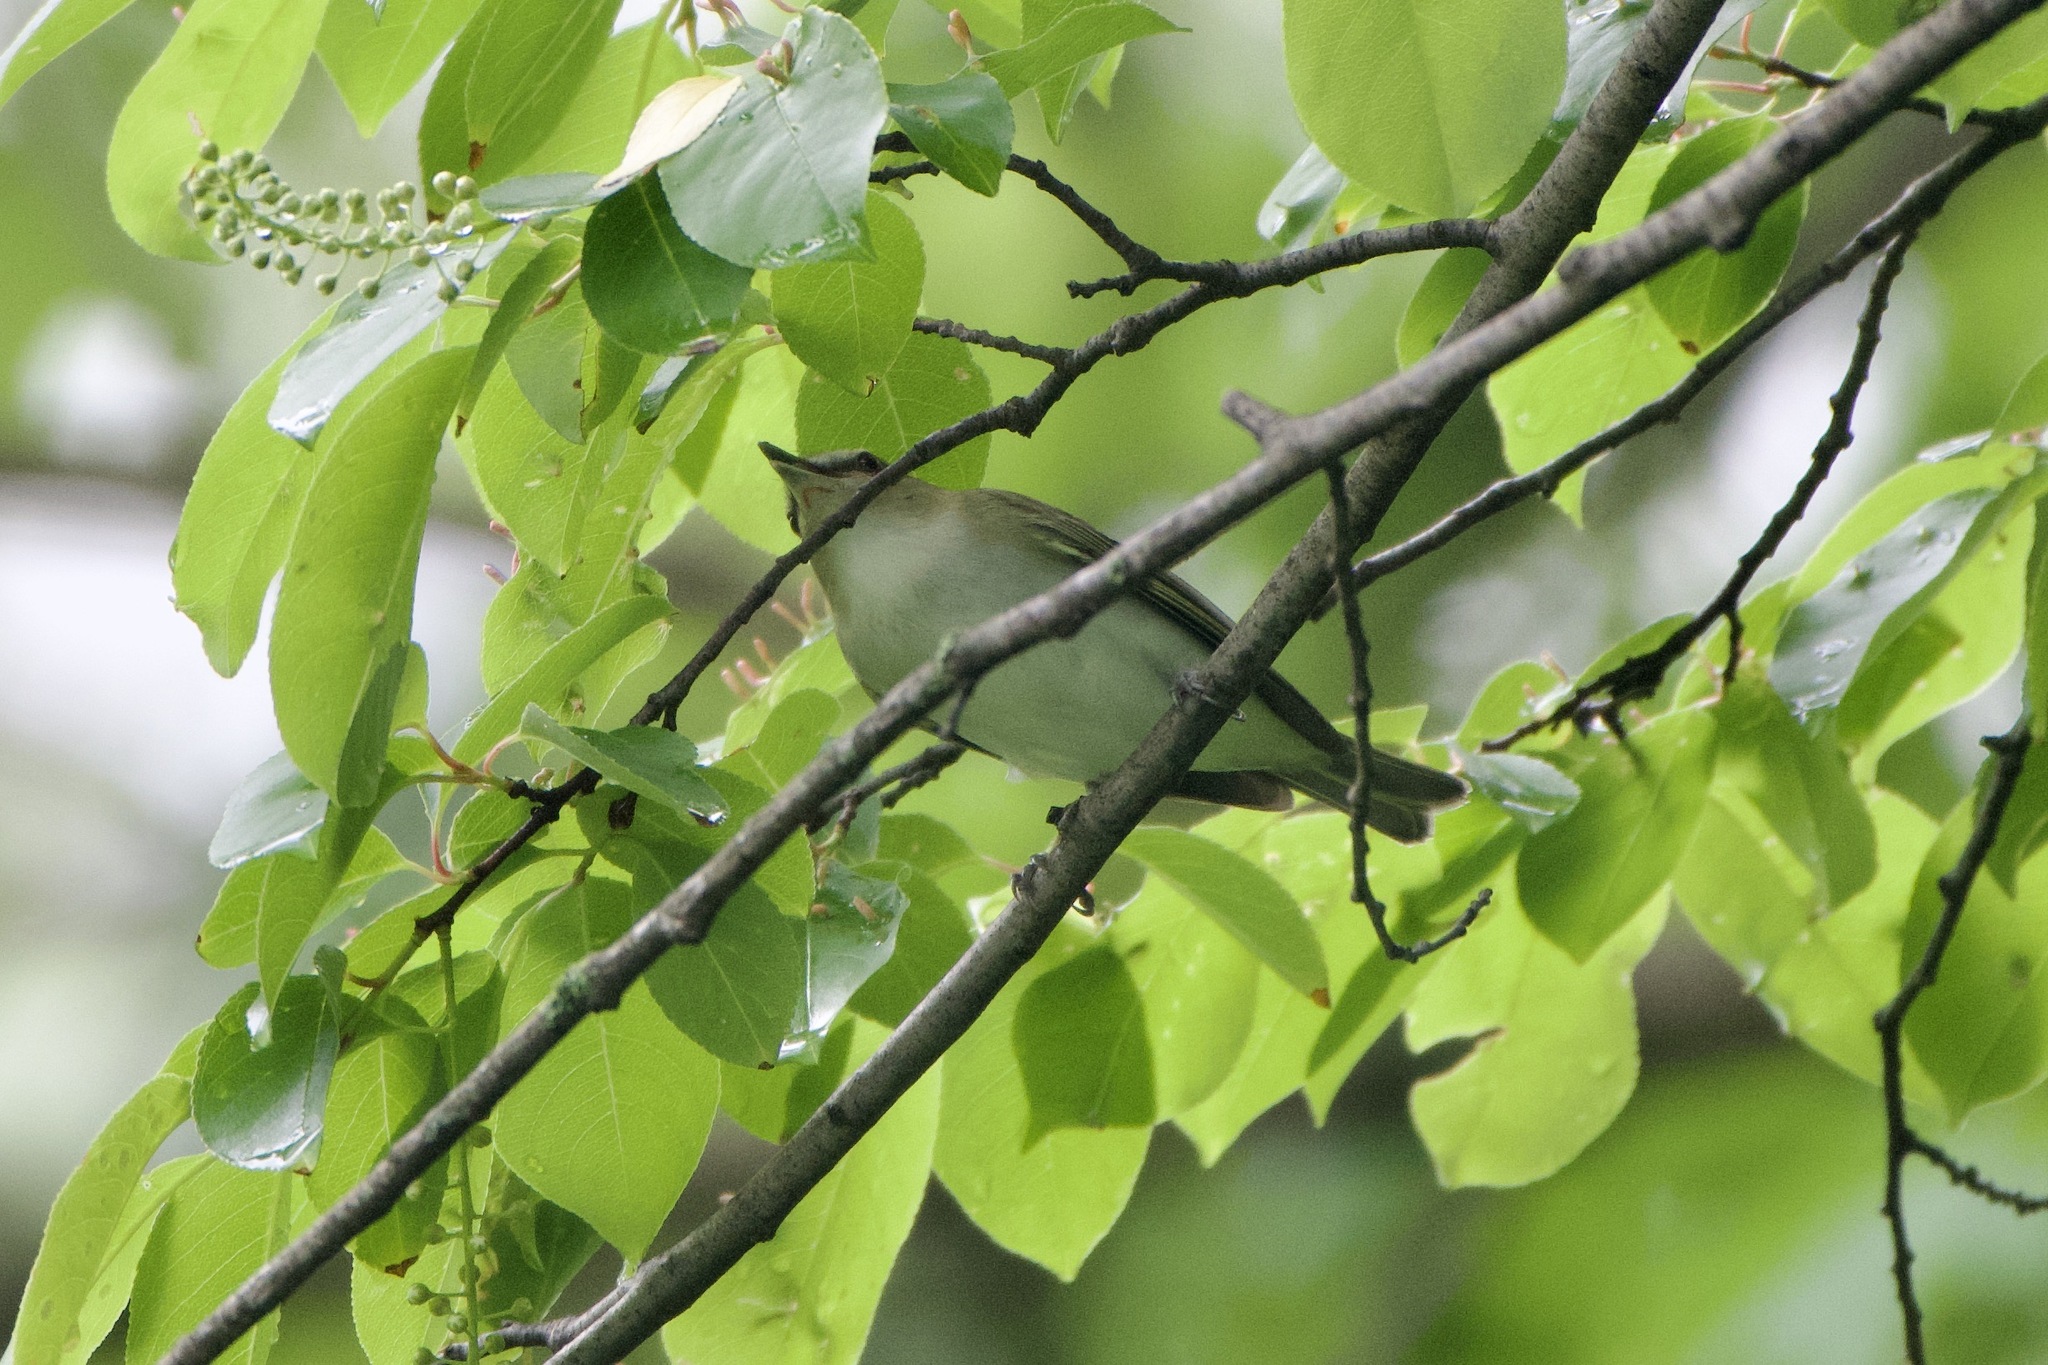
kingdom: Animalia
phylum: Chordata
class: Aves
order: Passeriformes
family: Vireonidae
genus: Vireo
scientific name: Vireo olivaceus
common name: Red-eyed vireo
